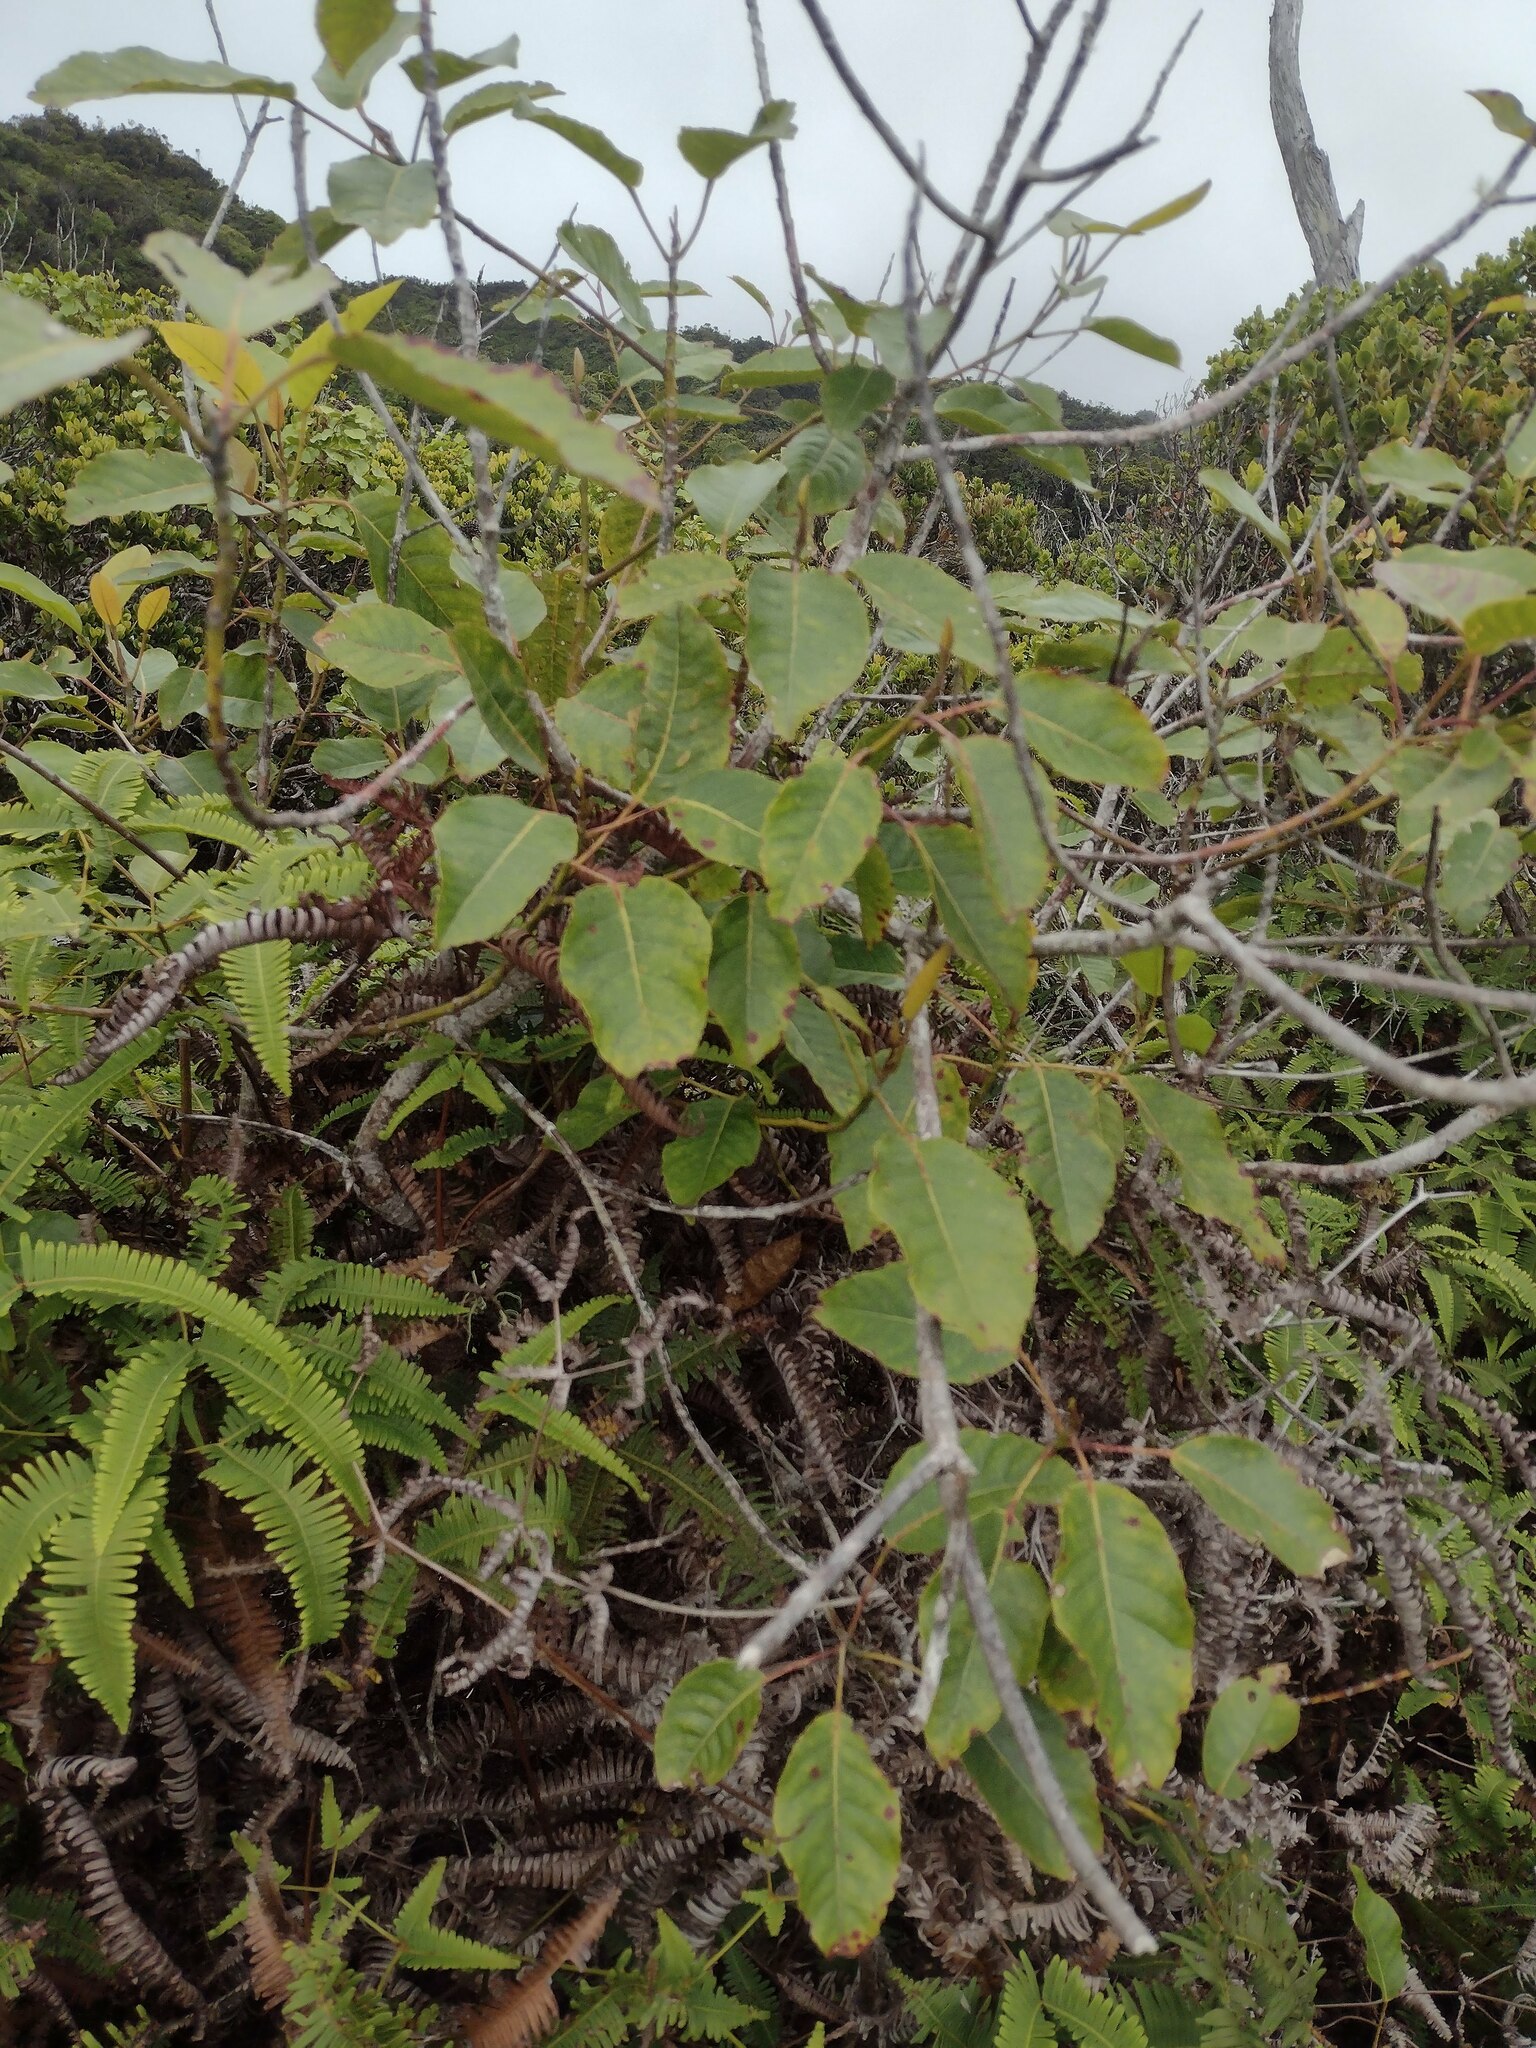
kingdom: Plantae
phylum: Tracheophyta
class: Magnoliopsida
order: Oxalidales
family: Elaeocarpaceae
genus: Elaeocarpus
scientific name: Elaeocarpus bifidus
